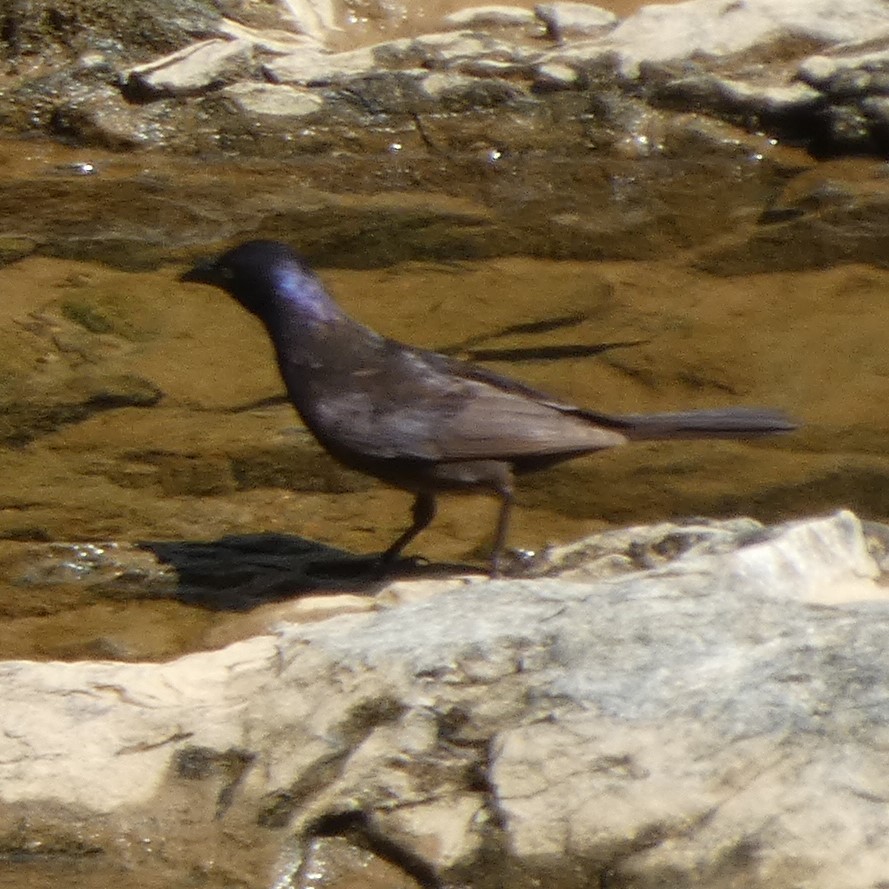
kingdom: Animalia
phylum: Chordata
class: Aves
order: Passeriformes
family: Icteridae
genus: Quiscalus
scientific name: Quiscalus quiscula
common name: Common grackle
